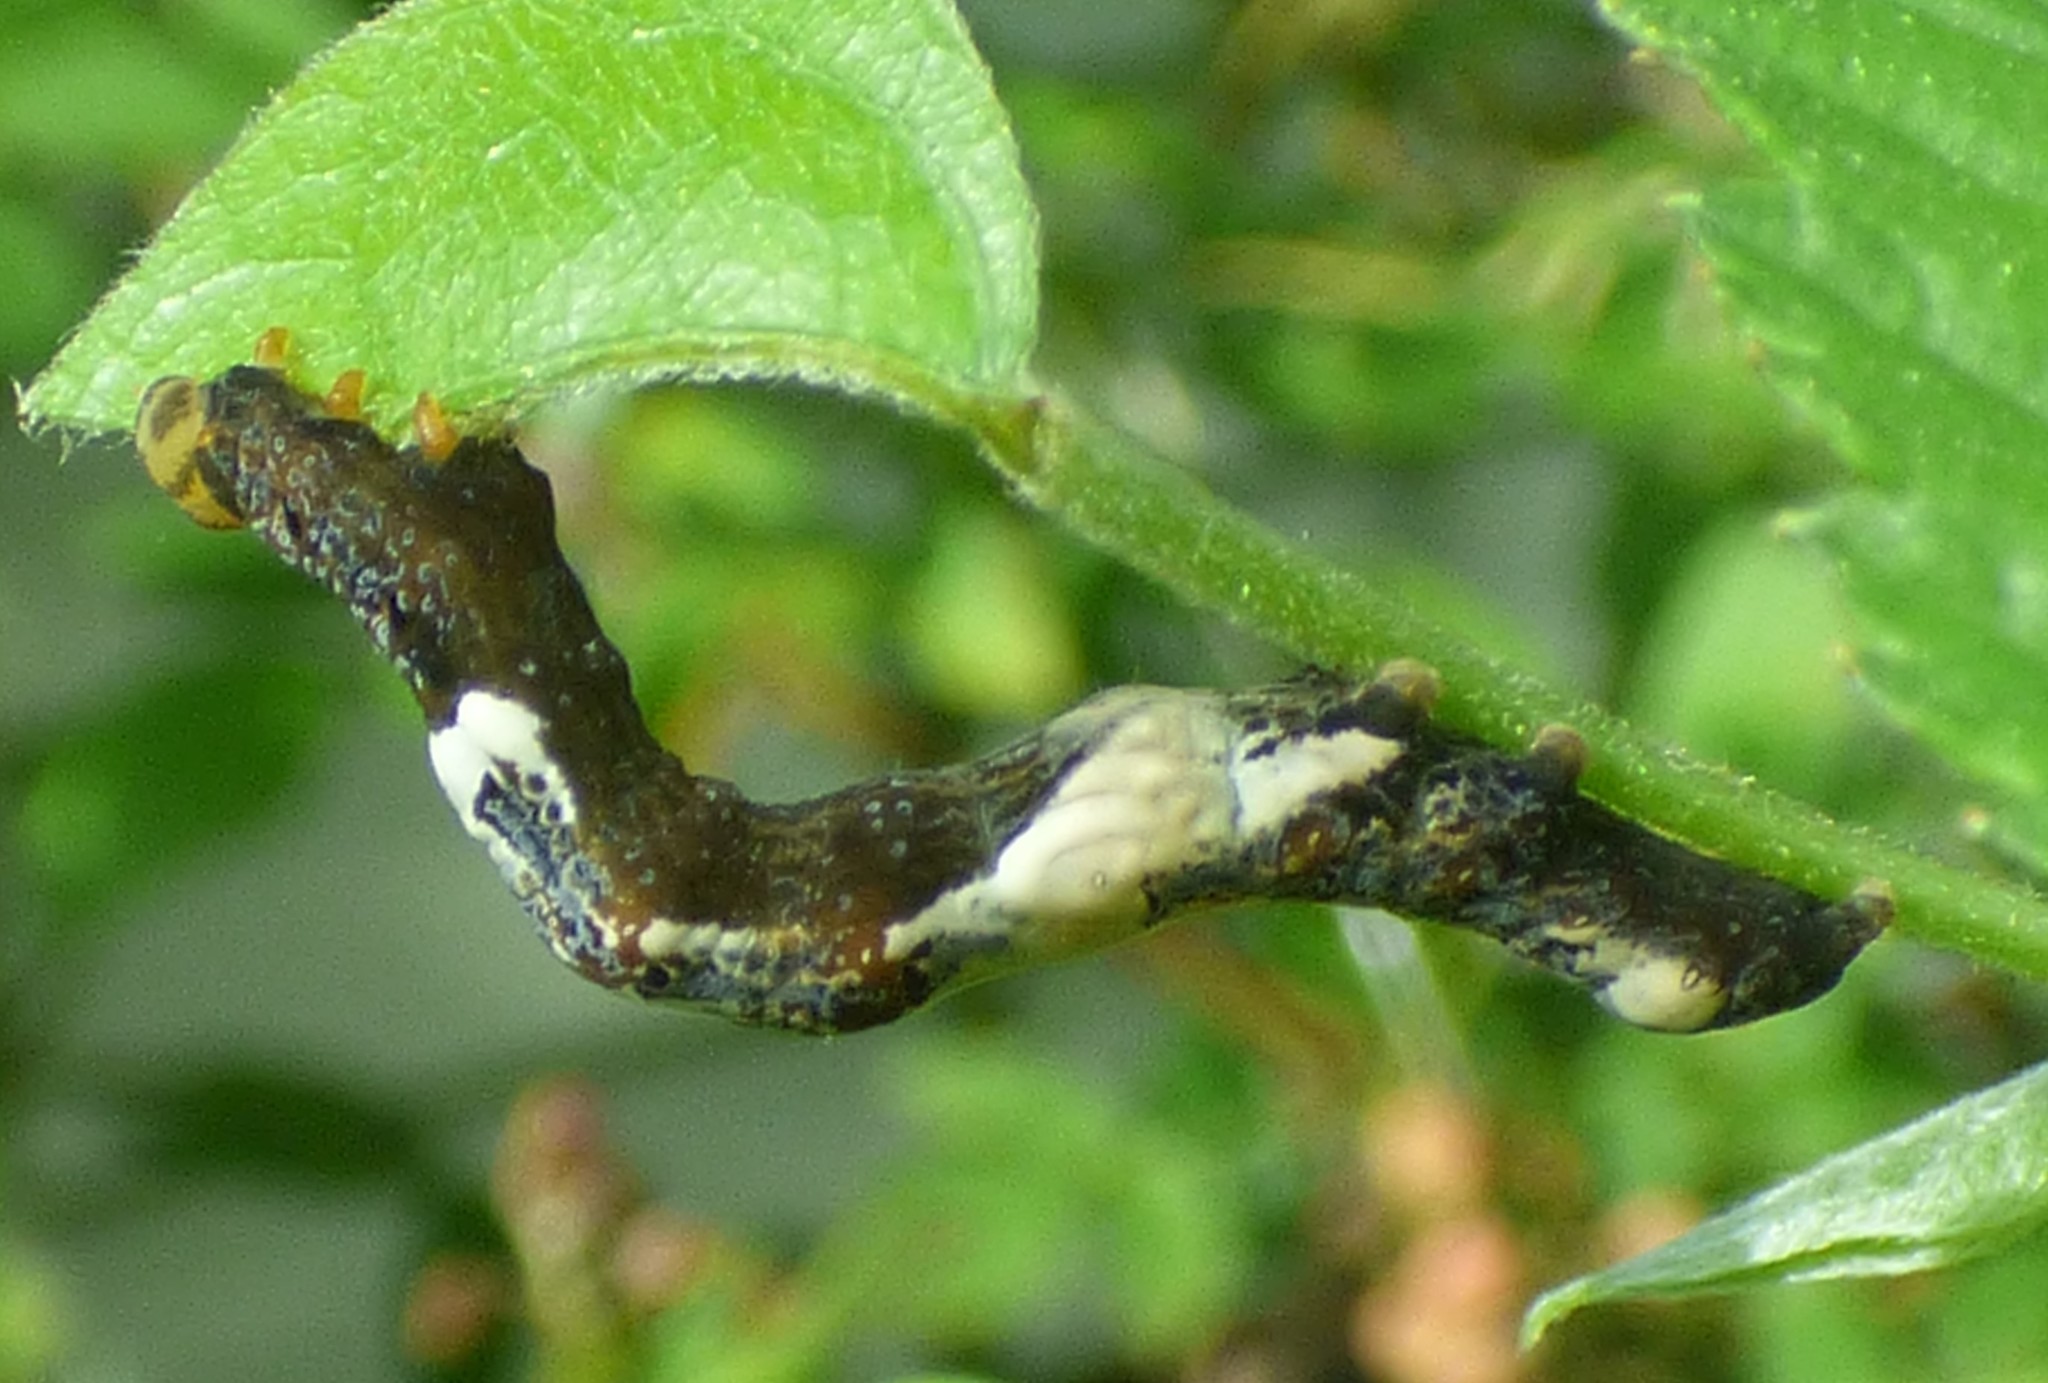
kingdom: Animalia
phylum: Arthropoda
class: Insecta
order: Lepidoptera
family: Erebidae
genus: Plusiodonta
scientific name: Plusiodonta compressipalpis
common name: Moonseed moth
